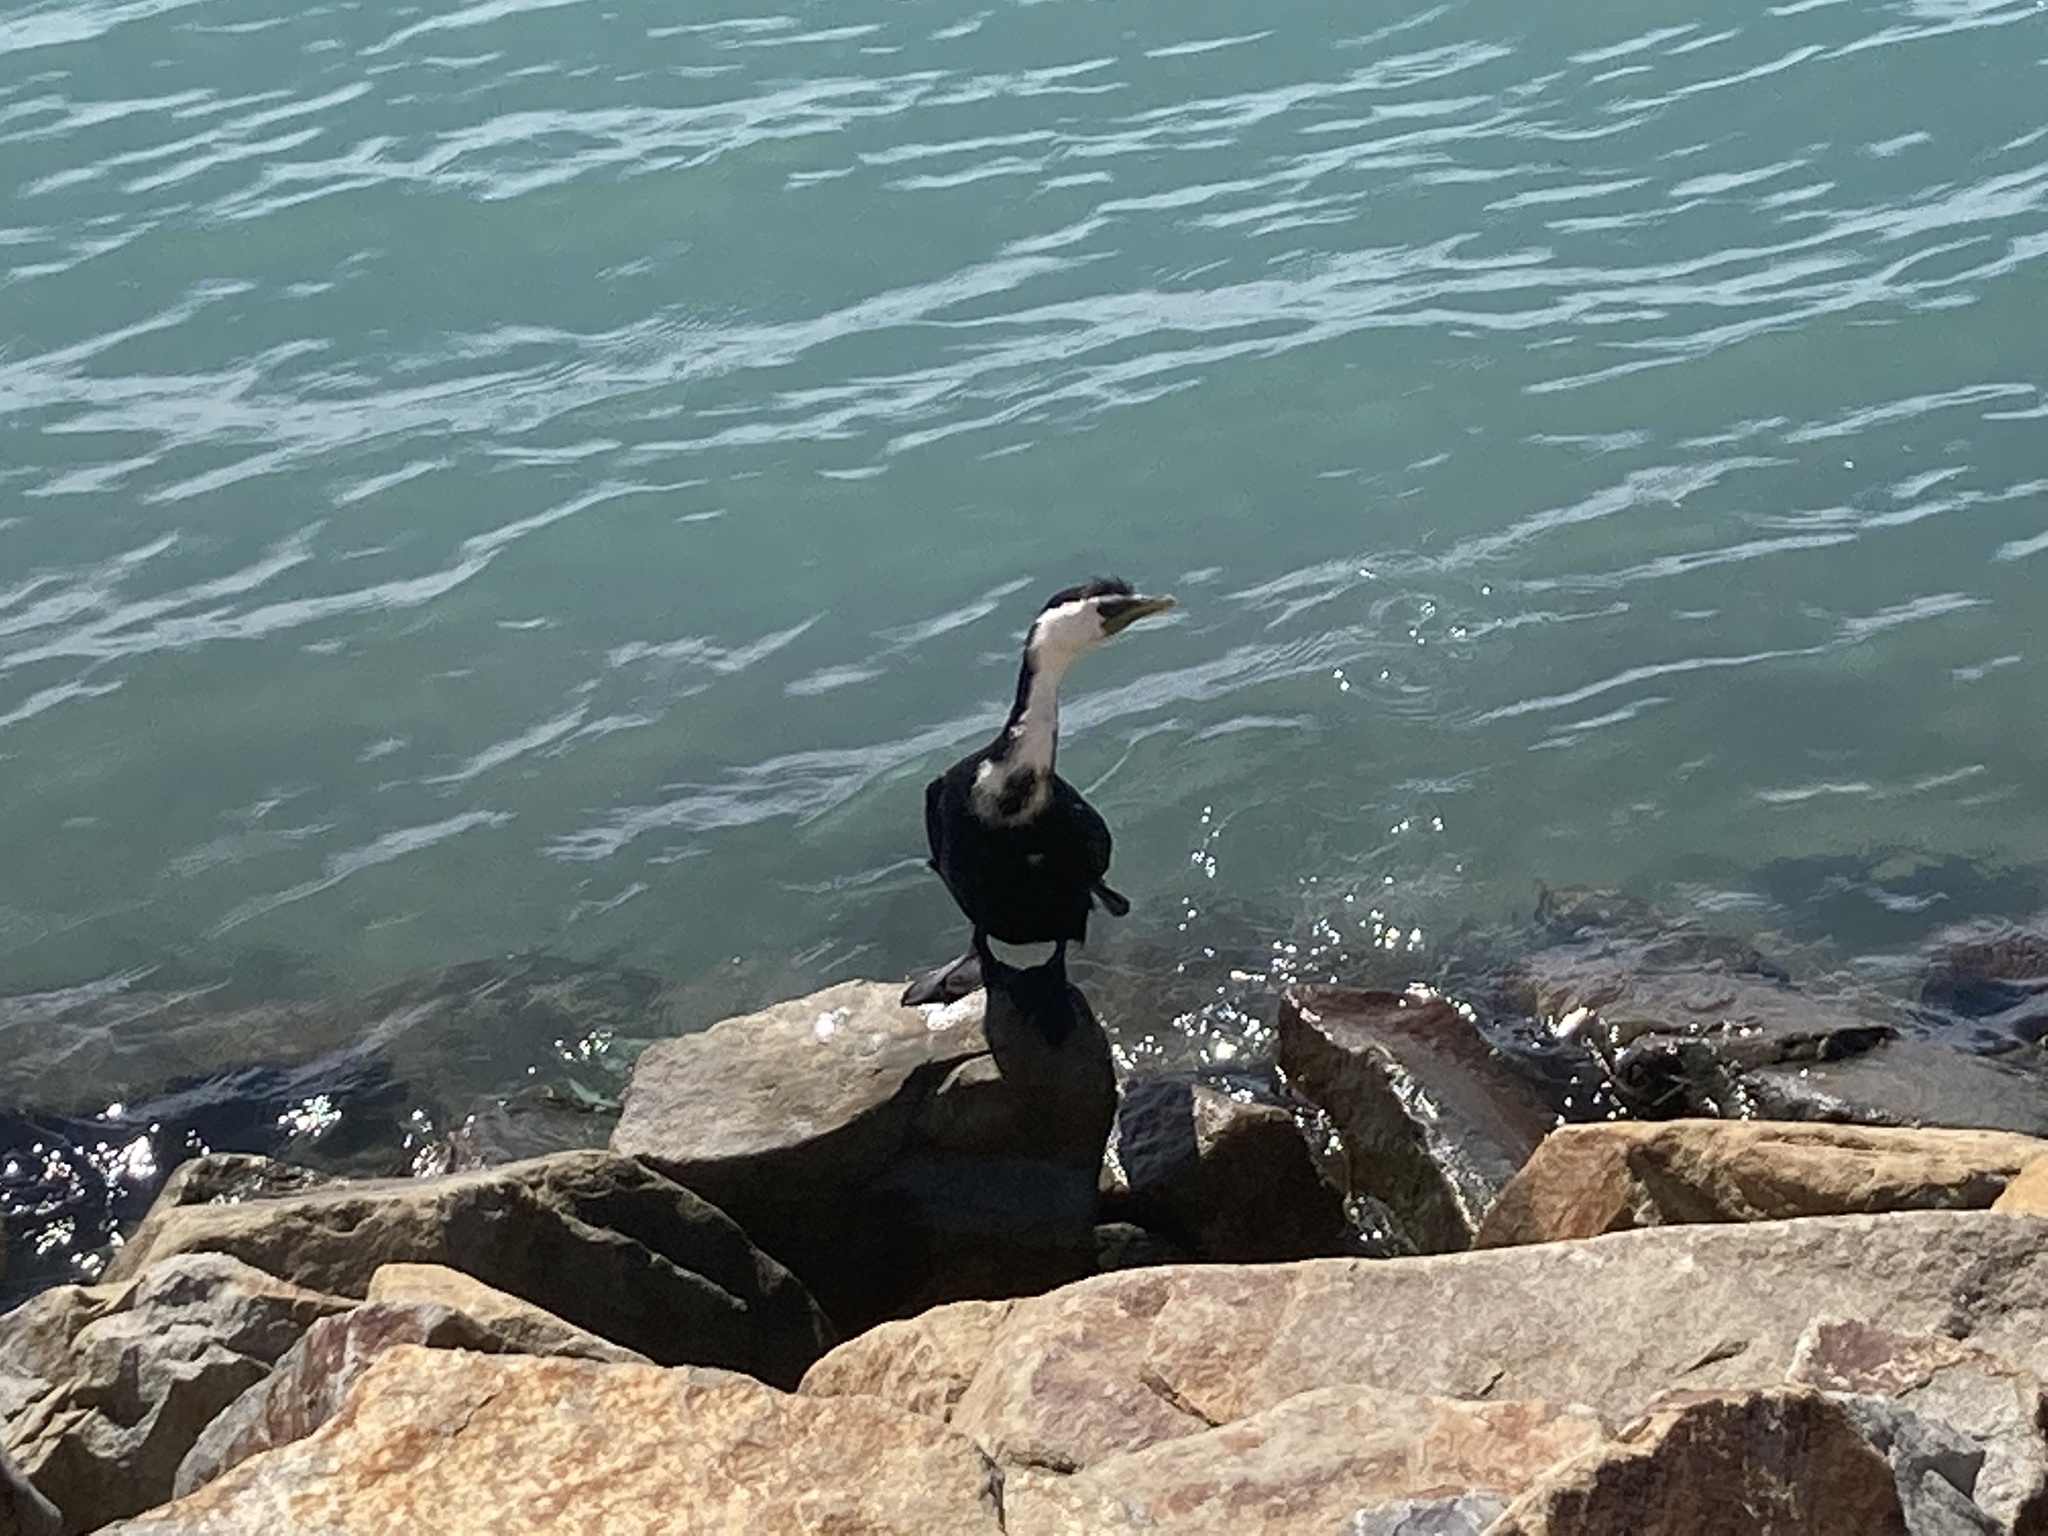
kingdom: Animalia
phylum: Chordata
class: Aves
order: Suliformes
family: Phalacrocoracidae
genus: Microcarbo
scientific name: Microcarbo melanoleucos
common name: Little pied cormorant
